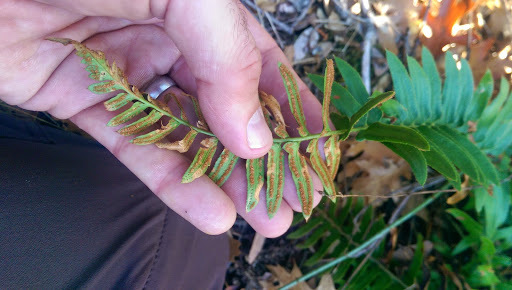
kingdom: Plantae
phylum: Tracheophyta
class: Polypodiopsida
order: Polypodiales
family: Dryopteridaceae
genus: Polystichum
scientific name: Polystichum imbricans
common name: Dwarf western sword fern
